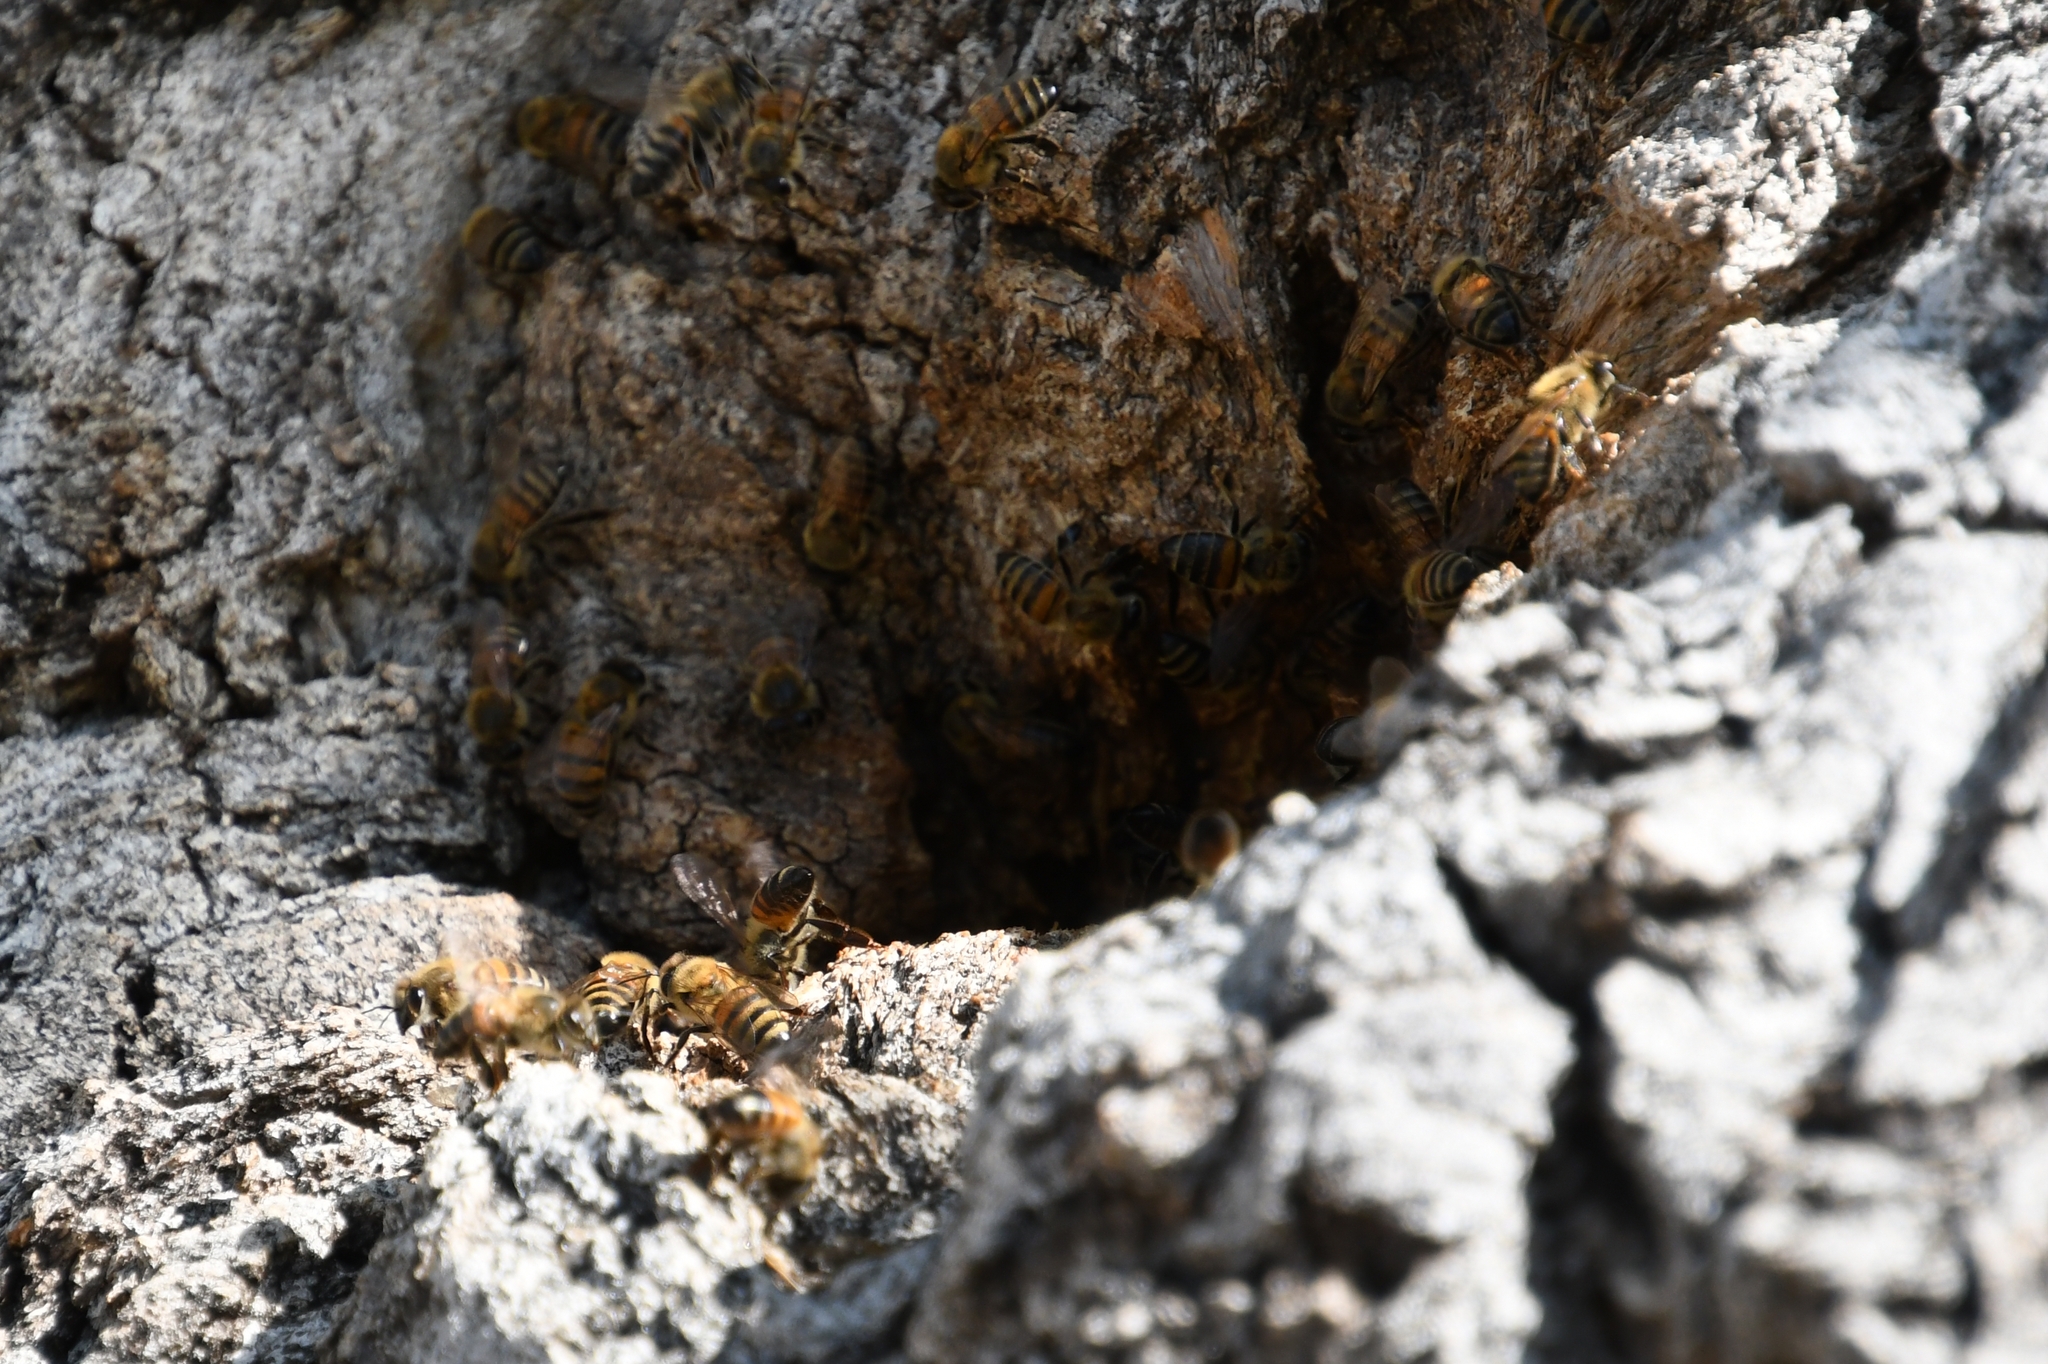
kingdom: Animalia
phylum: Arthropoda
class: Insecta
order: Hymenoptera
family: Apidae
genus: Apis
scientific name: Apis mellifera
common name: Honey bee
